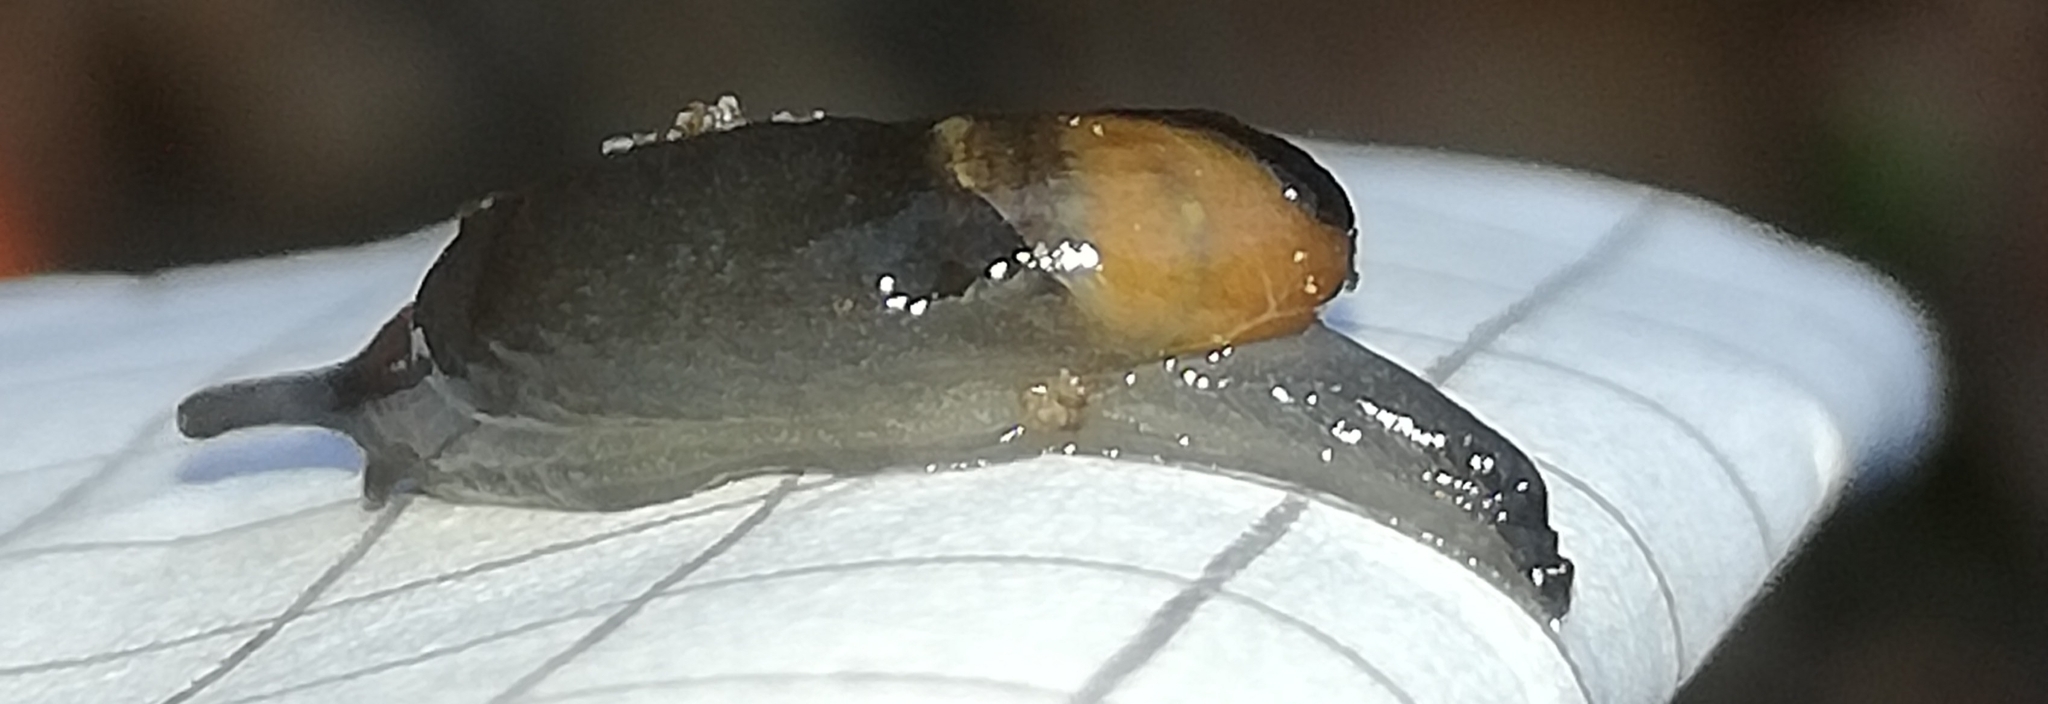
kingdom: Animalia
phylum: Mollusca
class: Gastropoda
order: Stylommatophora
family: Vitrinidae
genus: Vitrinobrachium
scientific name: Vitrinobrachium breve
